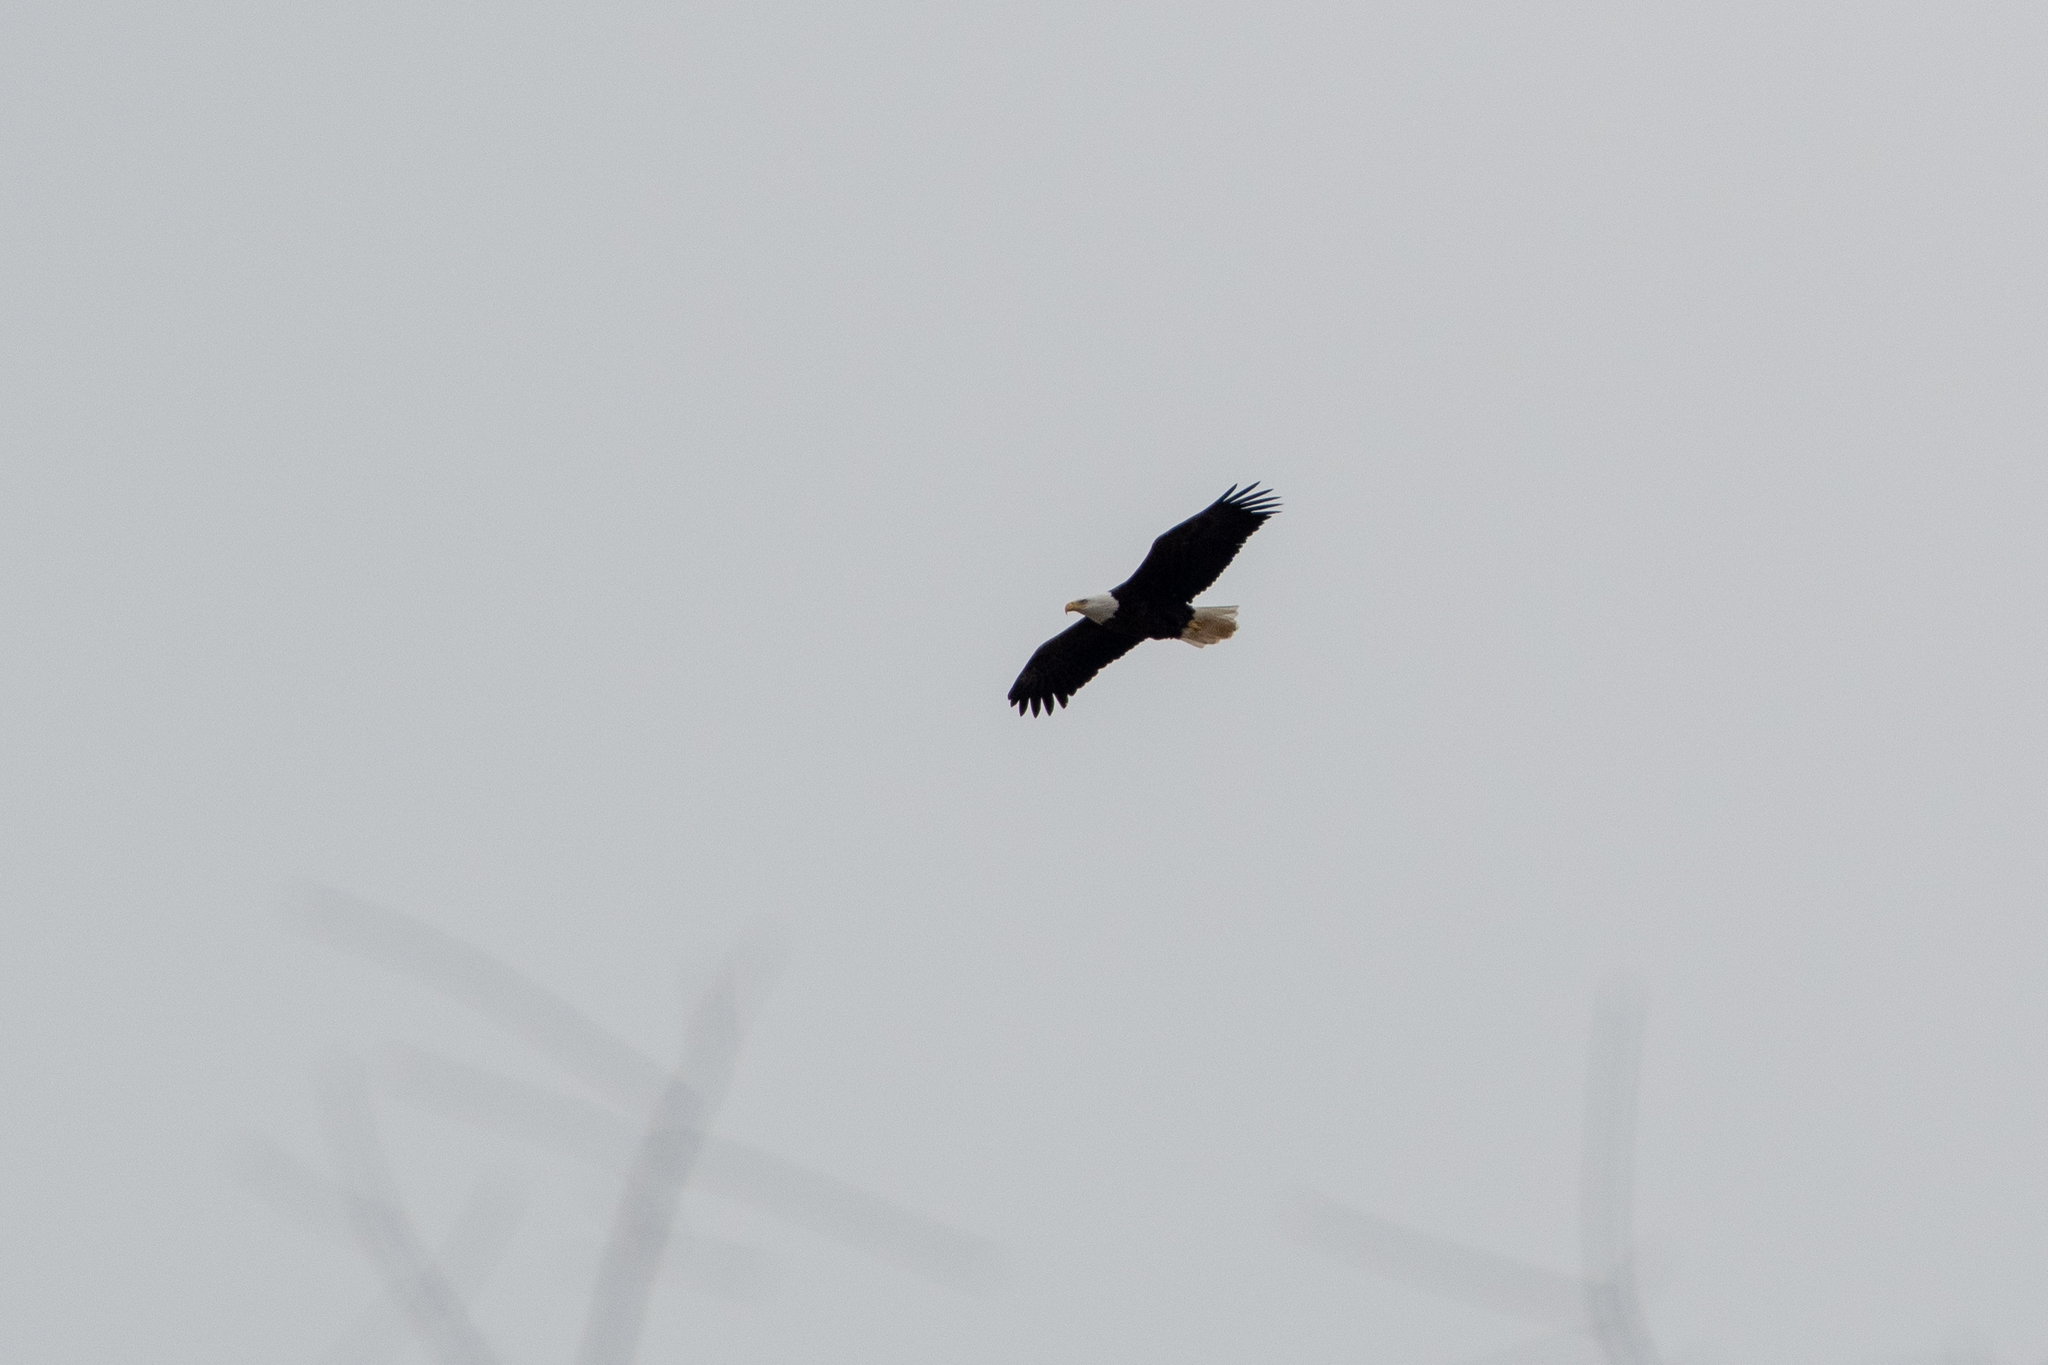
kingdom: Animalia
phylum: Chordata
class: Aves
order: Accipitriformes
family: Accipitridae
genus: Haliaeetus
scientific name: Haliaeetus leucocephalus
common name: Bald eagle
